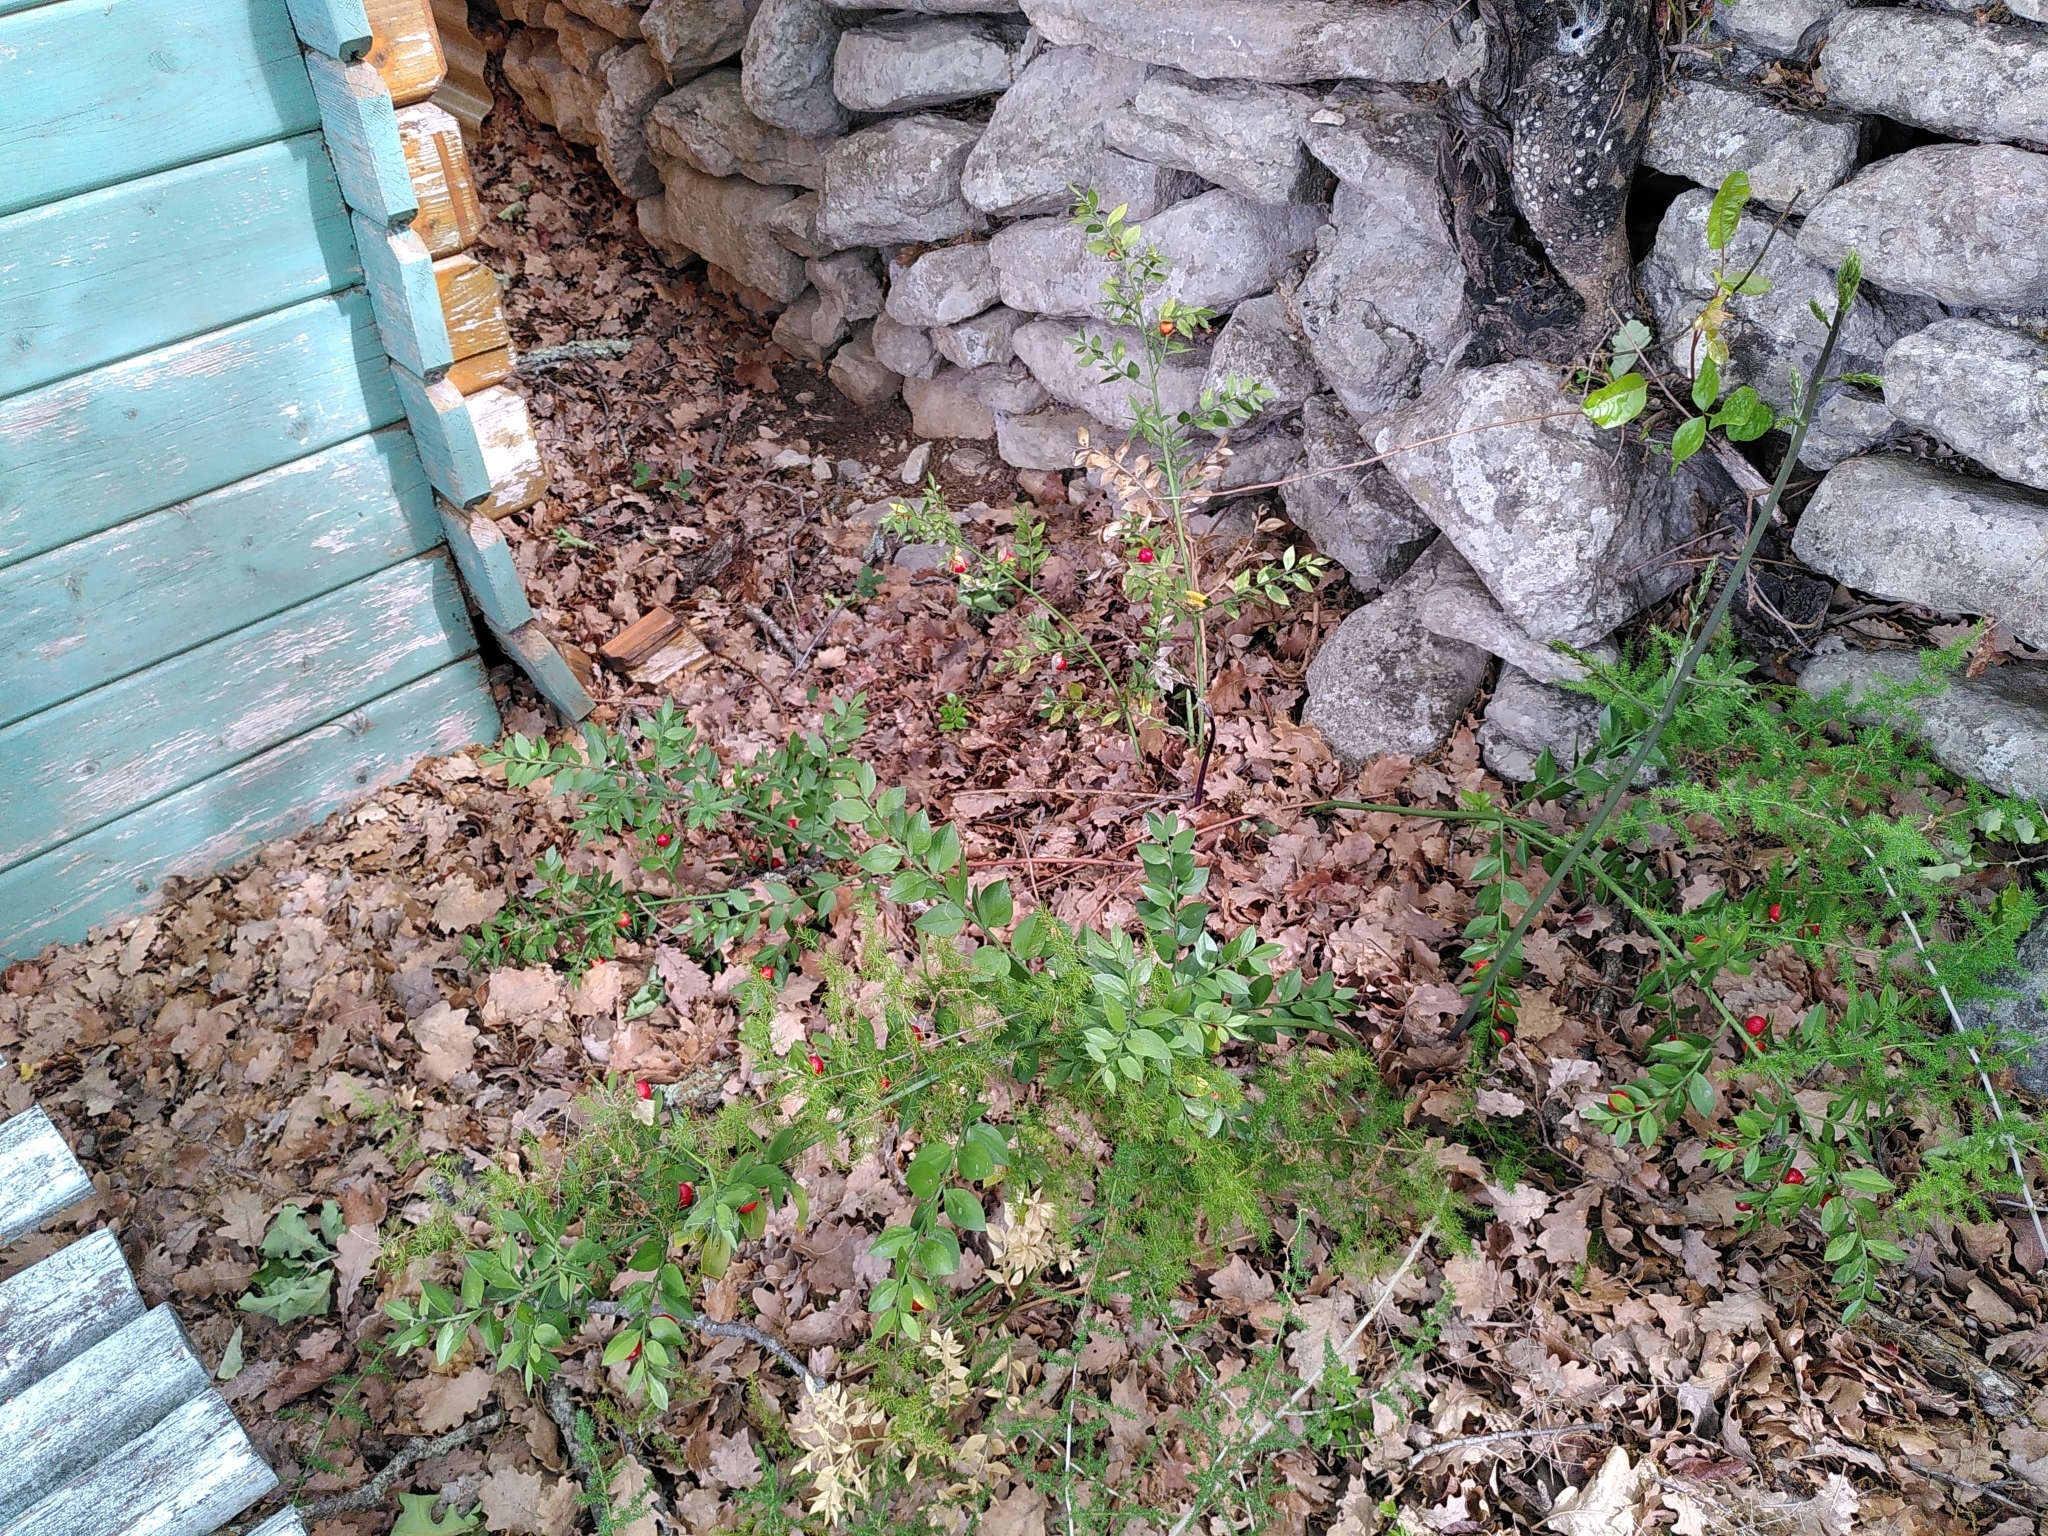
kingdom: Plantae
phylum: Tracheophyta
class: Liliopsida
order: Asparagales
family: Asparagaceae
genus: Ruscus
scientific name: Ruscus aculeatus
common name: Butcher's-broom
